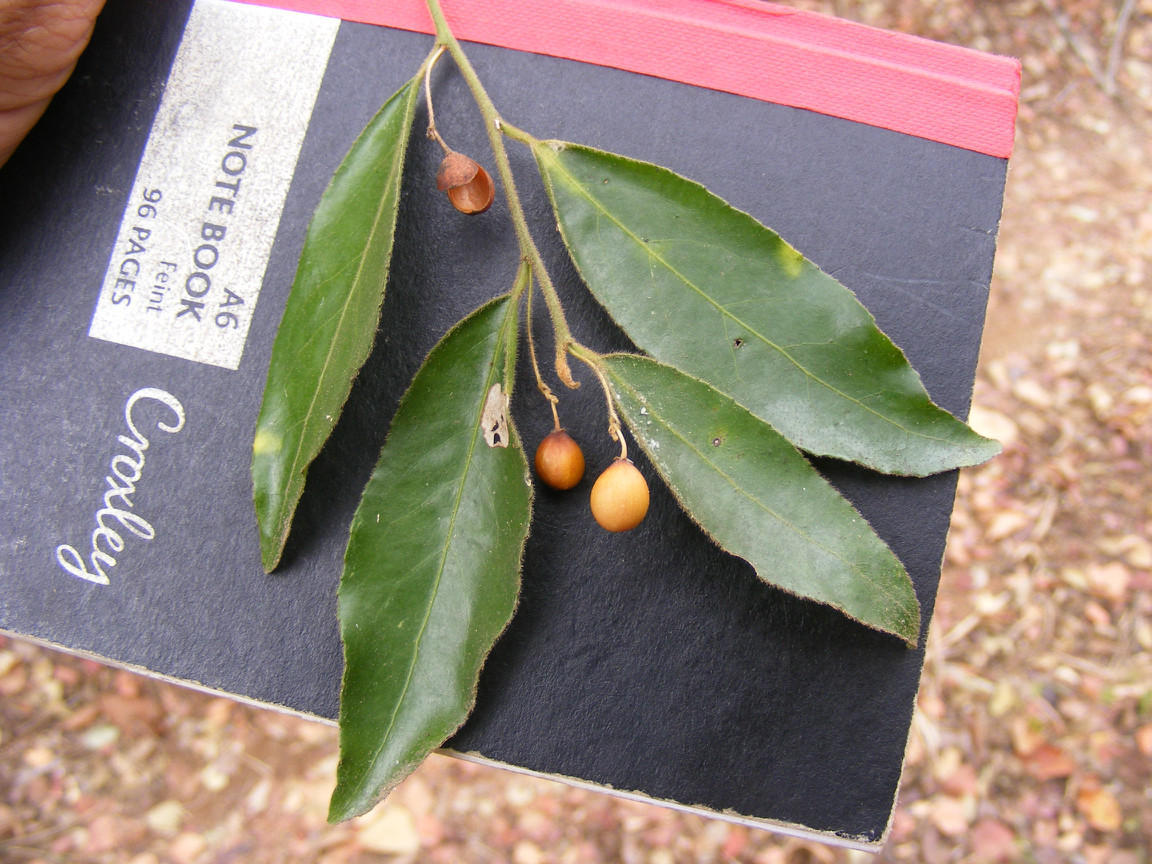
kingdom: Plantae
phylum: Tracheophyta
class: Magnoliopsida
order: Celastrales
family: Celastraceae
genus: Gymnosporia
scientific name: Gymnosporia peduncularis
